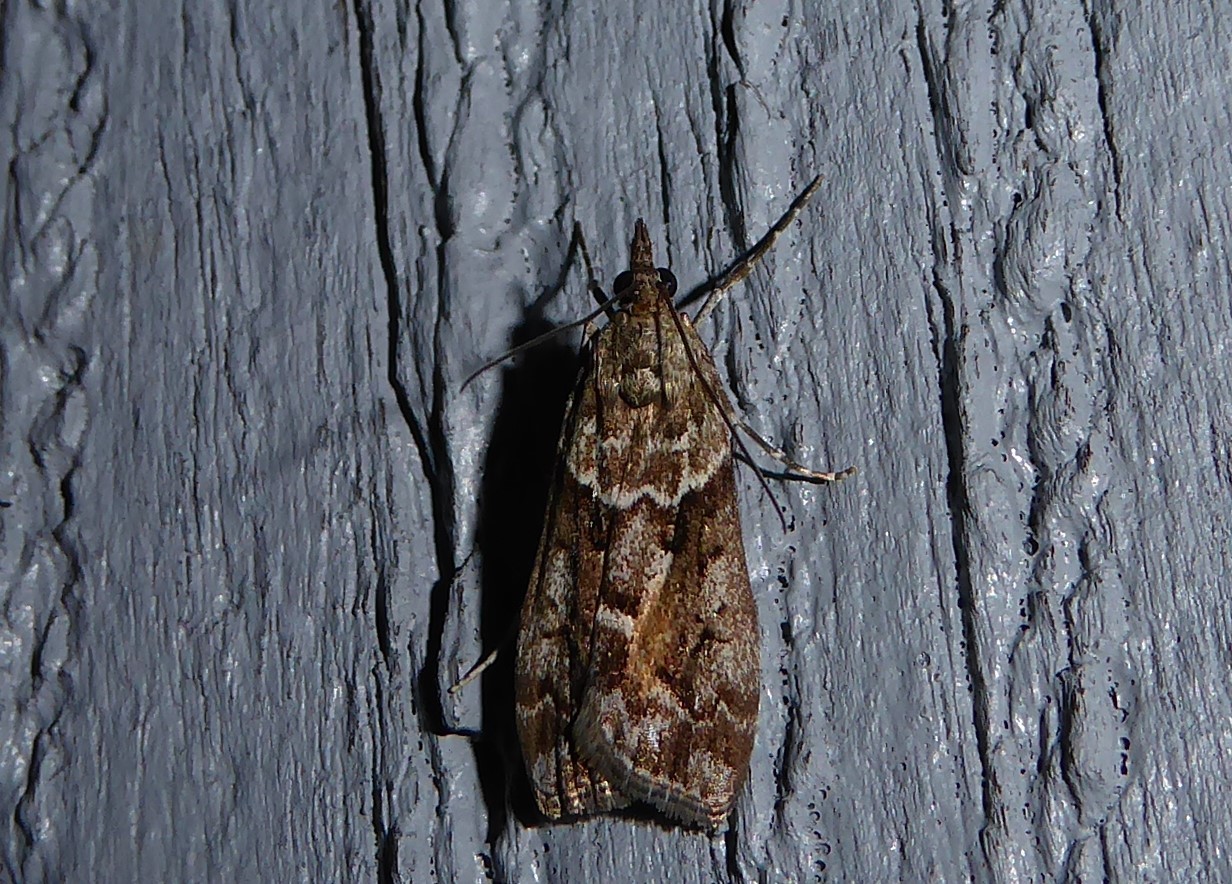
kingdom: Animalia
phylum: Arthropoda
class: Insecta
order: Lepidoptera
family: Crambidae
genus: Eudonia
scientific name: Eudonia submarginalis
